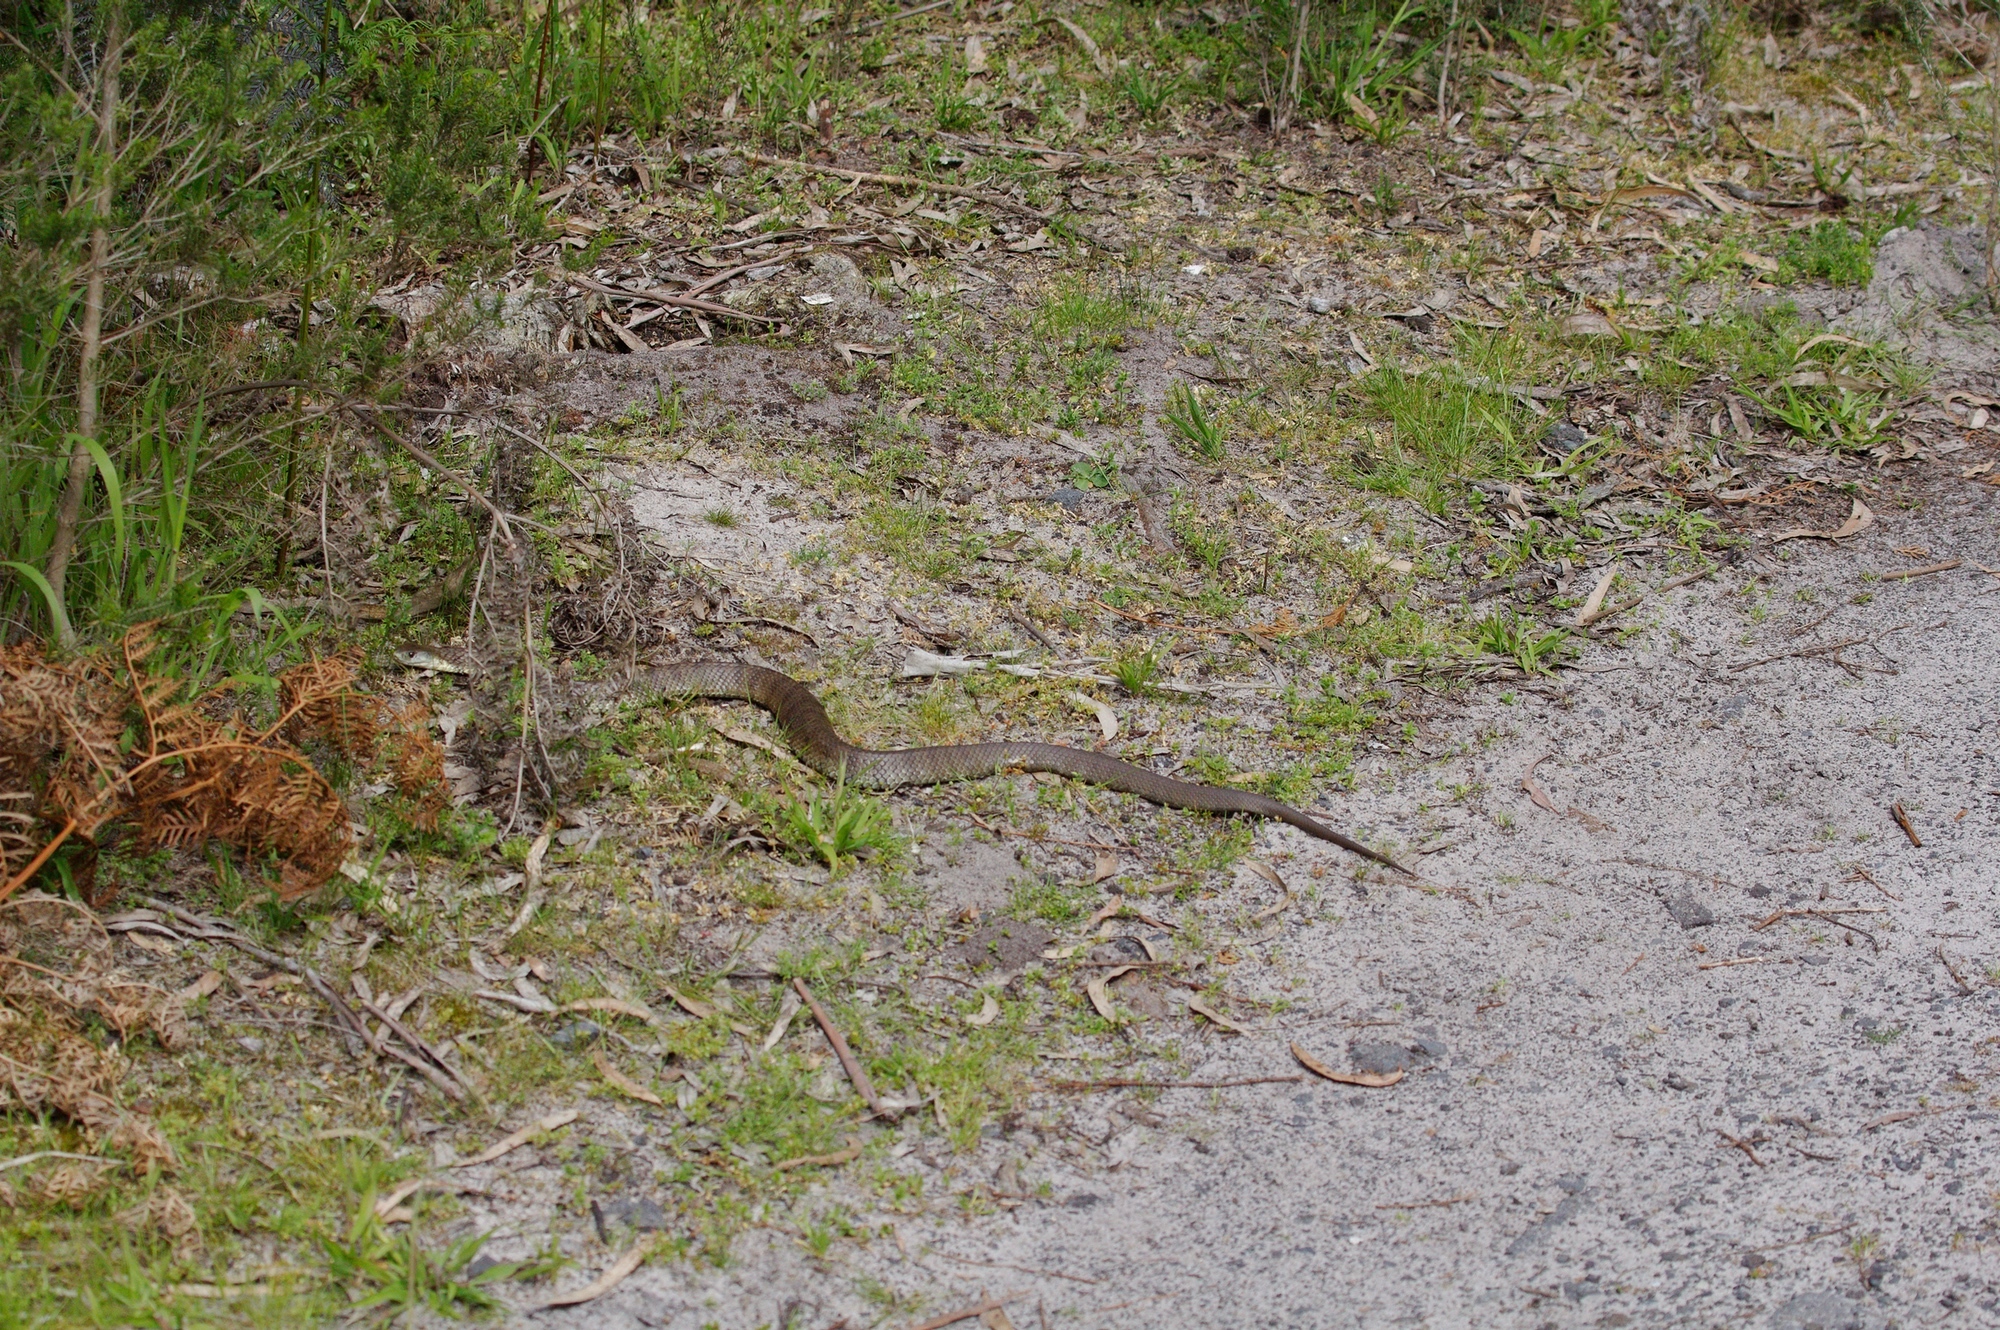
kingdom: Animalia
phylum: Chordata
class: Squamata
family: Elapidae
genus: Notechis
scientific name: Notechis scutatus
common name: Mainland tiger snake
